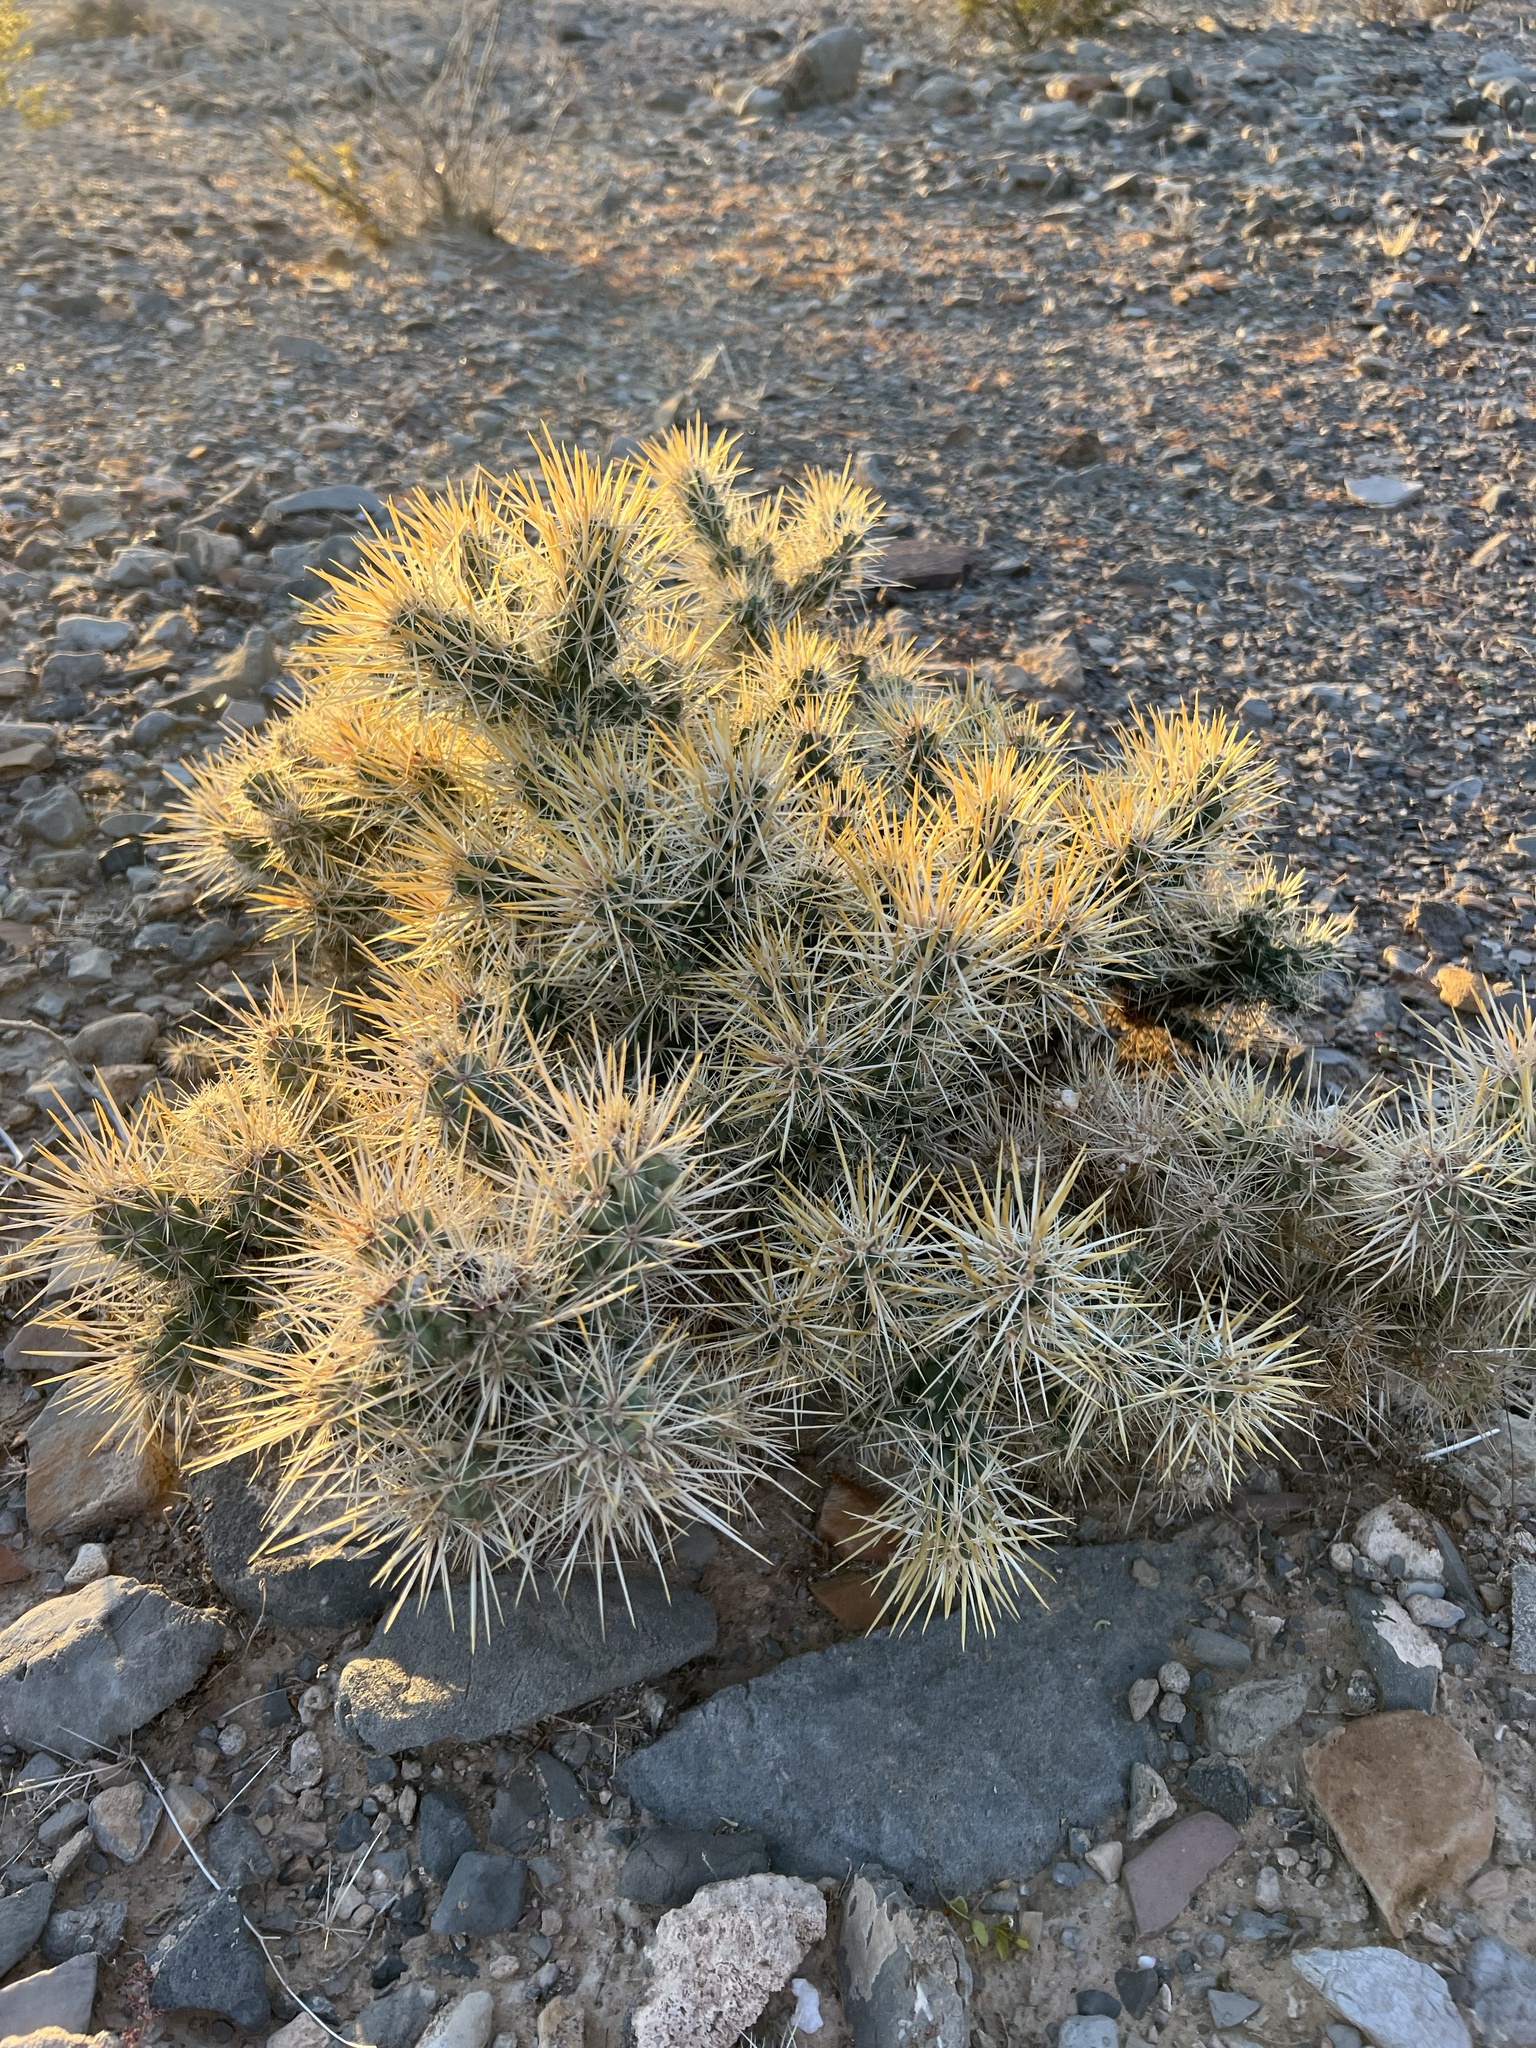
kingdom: Plantae
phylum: Tracheophyta
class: Magnoliopsida
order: Caryophyllales
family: Cactaceae
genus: Cylindropuntia
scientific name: Cylindropuntia echinocarpa
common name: Ground cholla
